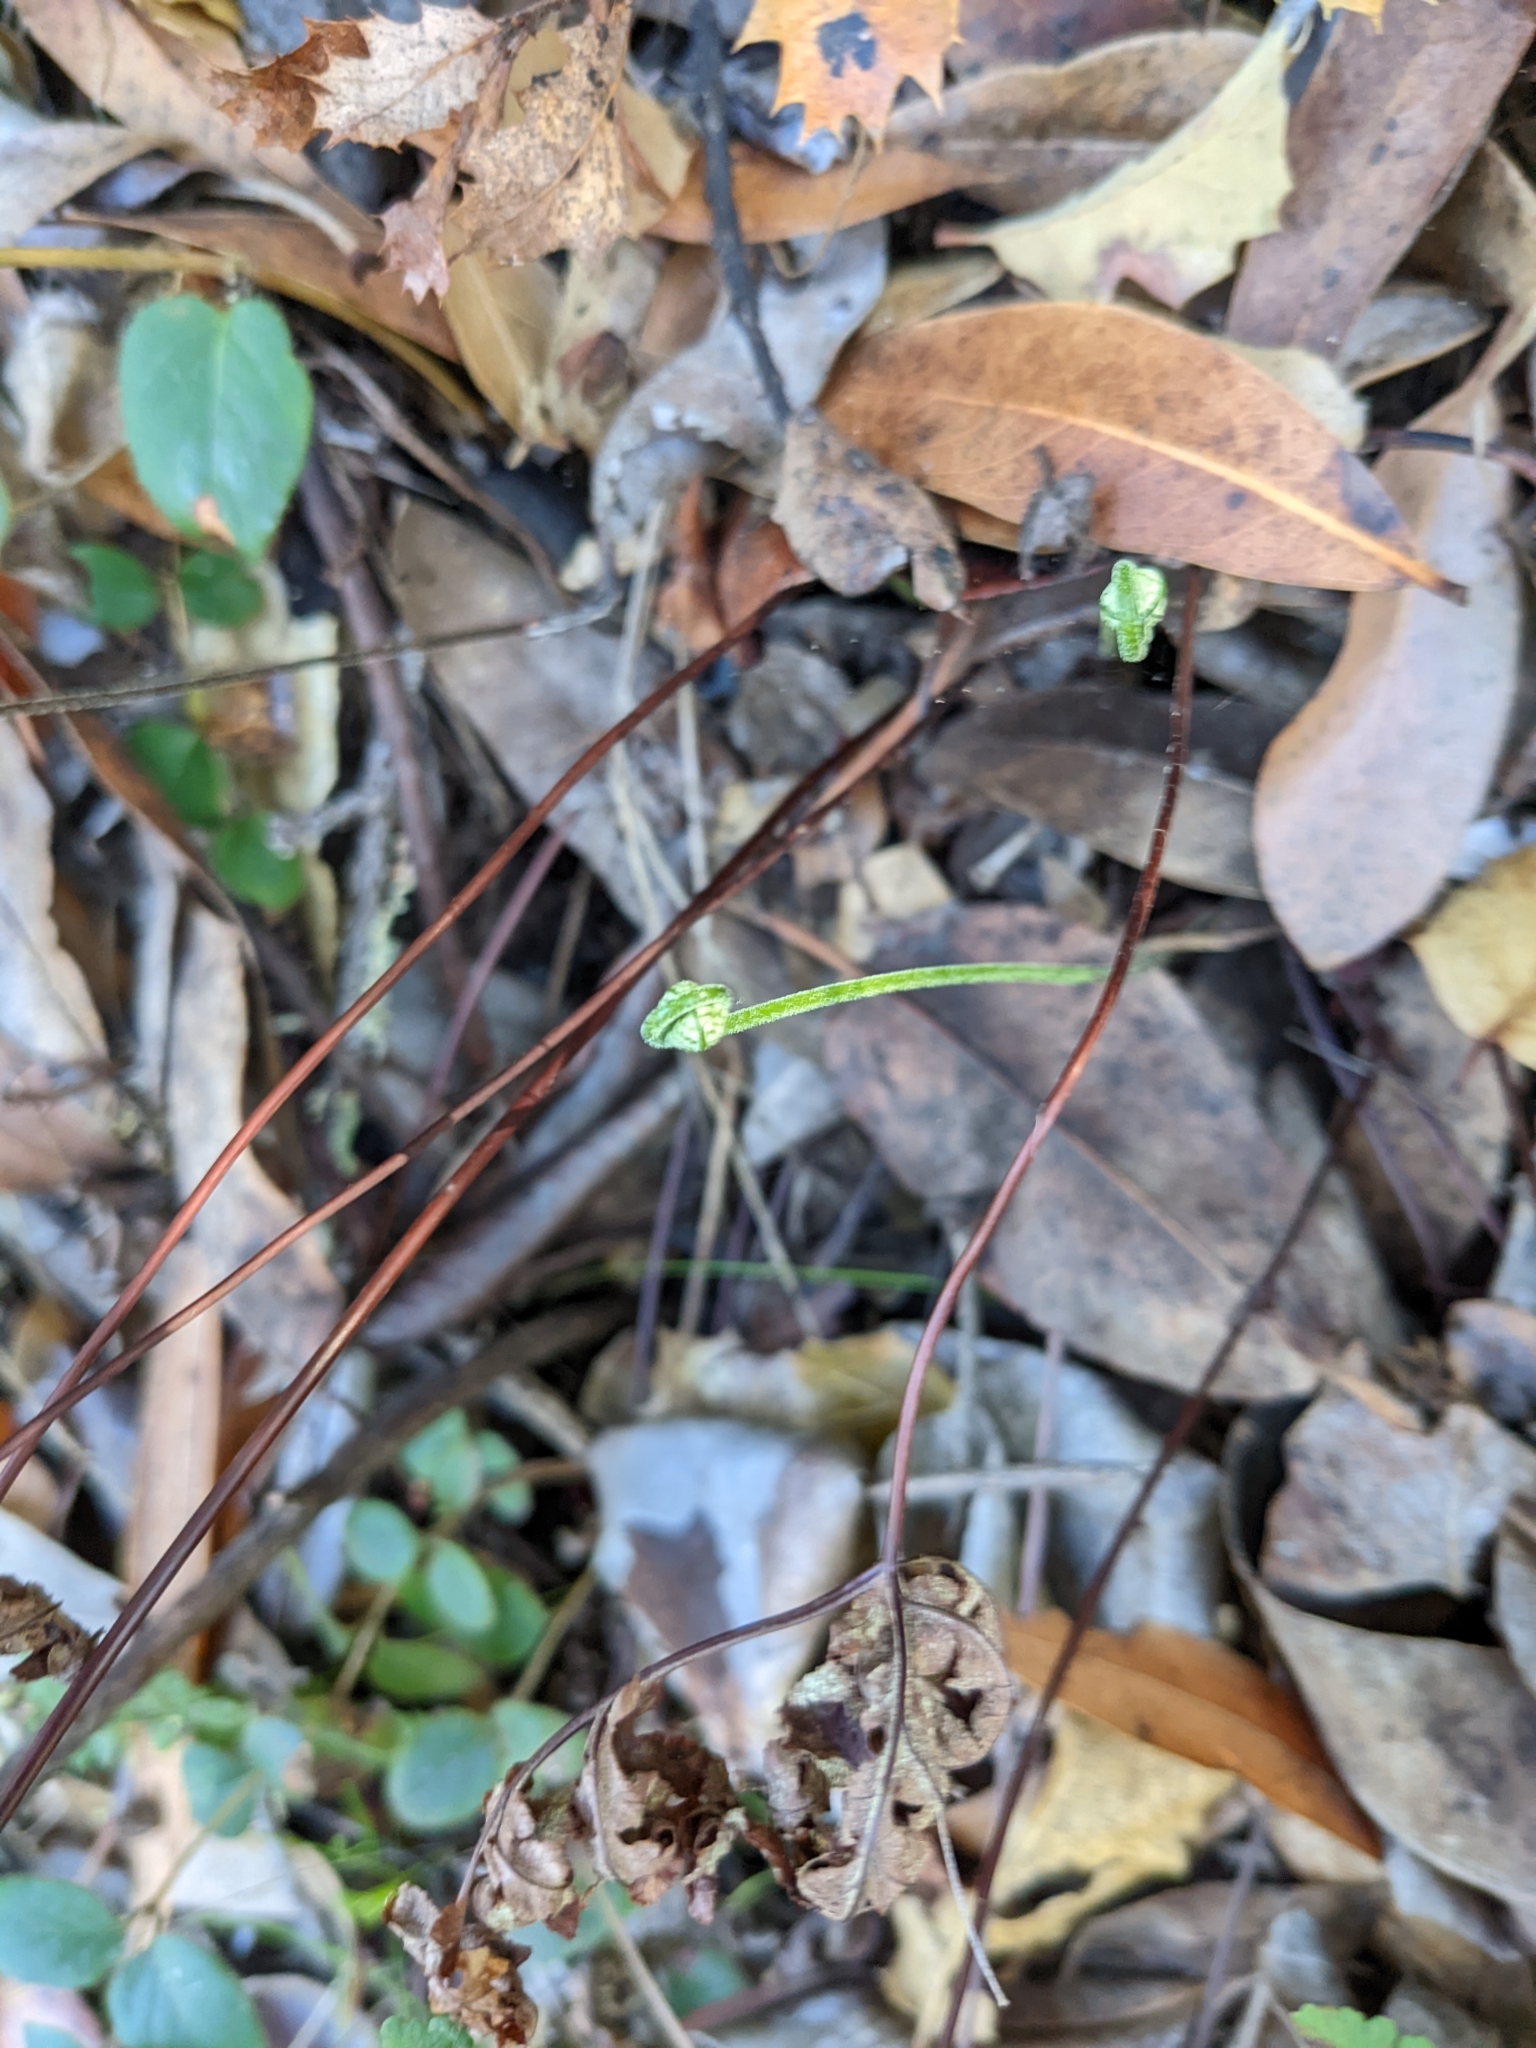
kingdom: Plantae
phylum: Tracheophyta
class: Polypodiopsida
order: Polypodiales
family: Pteridaceae
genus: Pentagramma
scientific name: Pentagramma triangularis
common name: Gold fern
